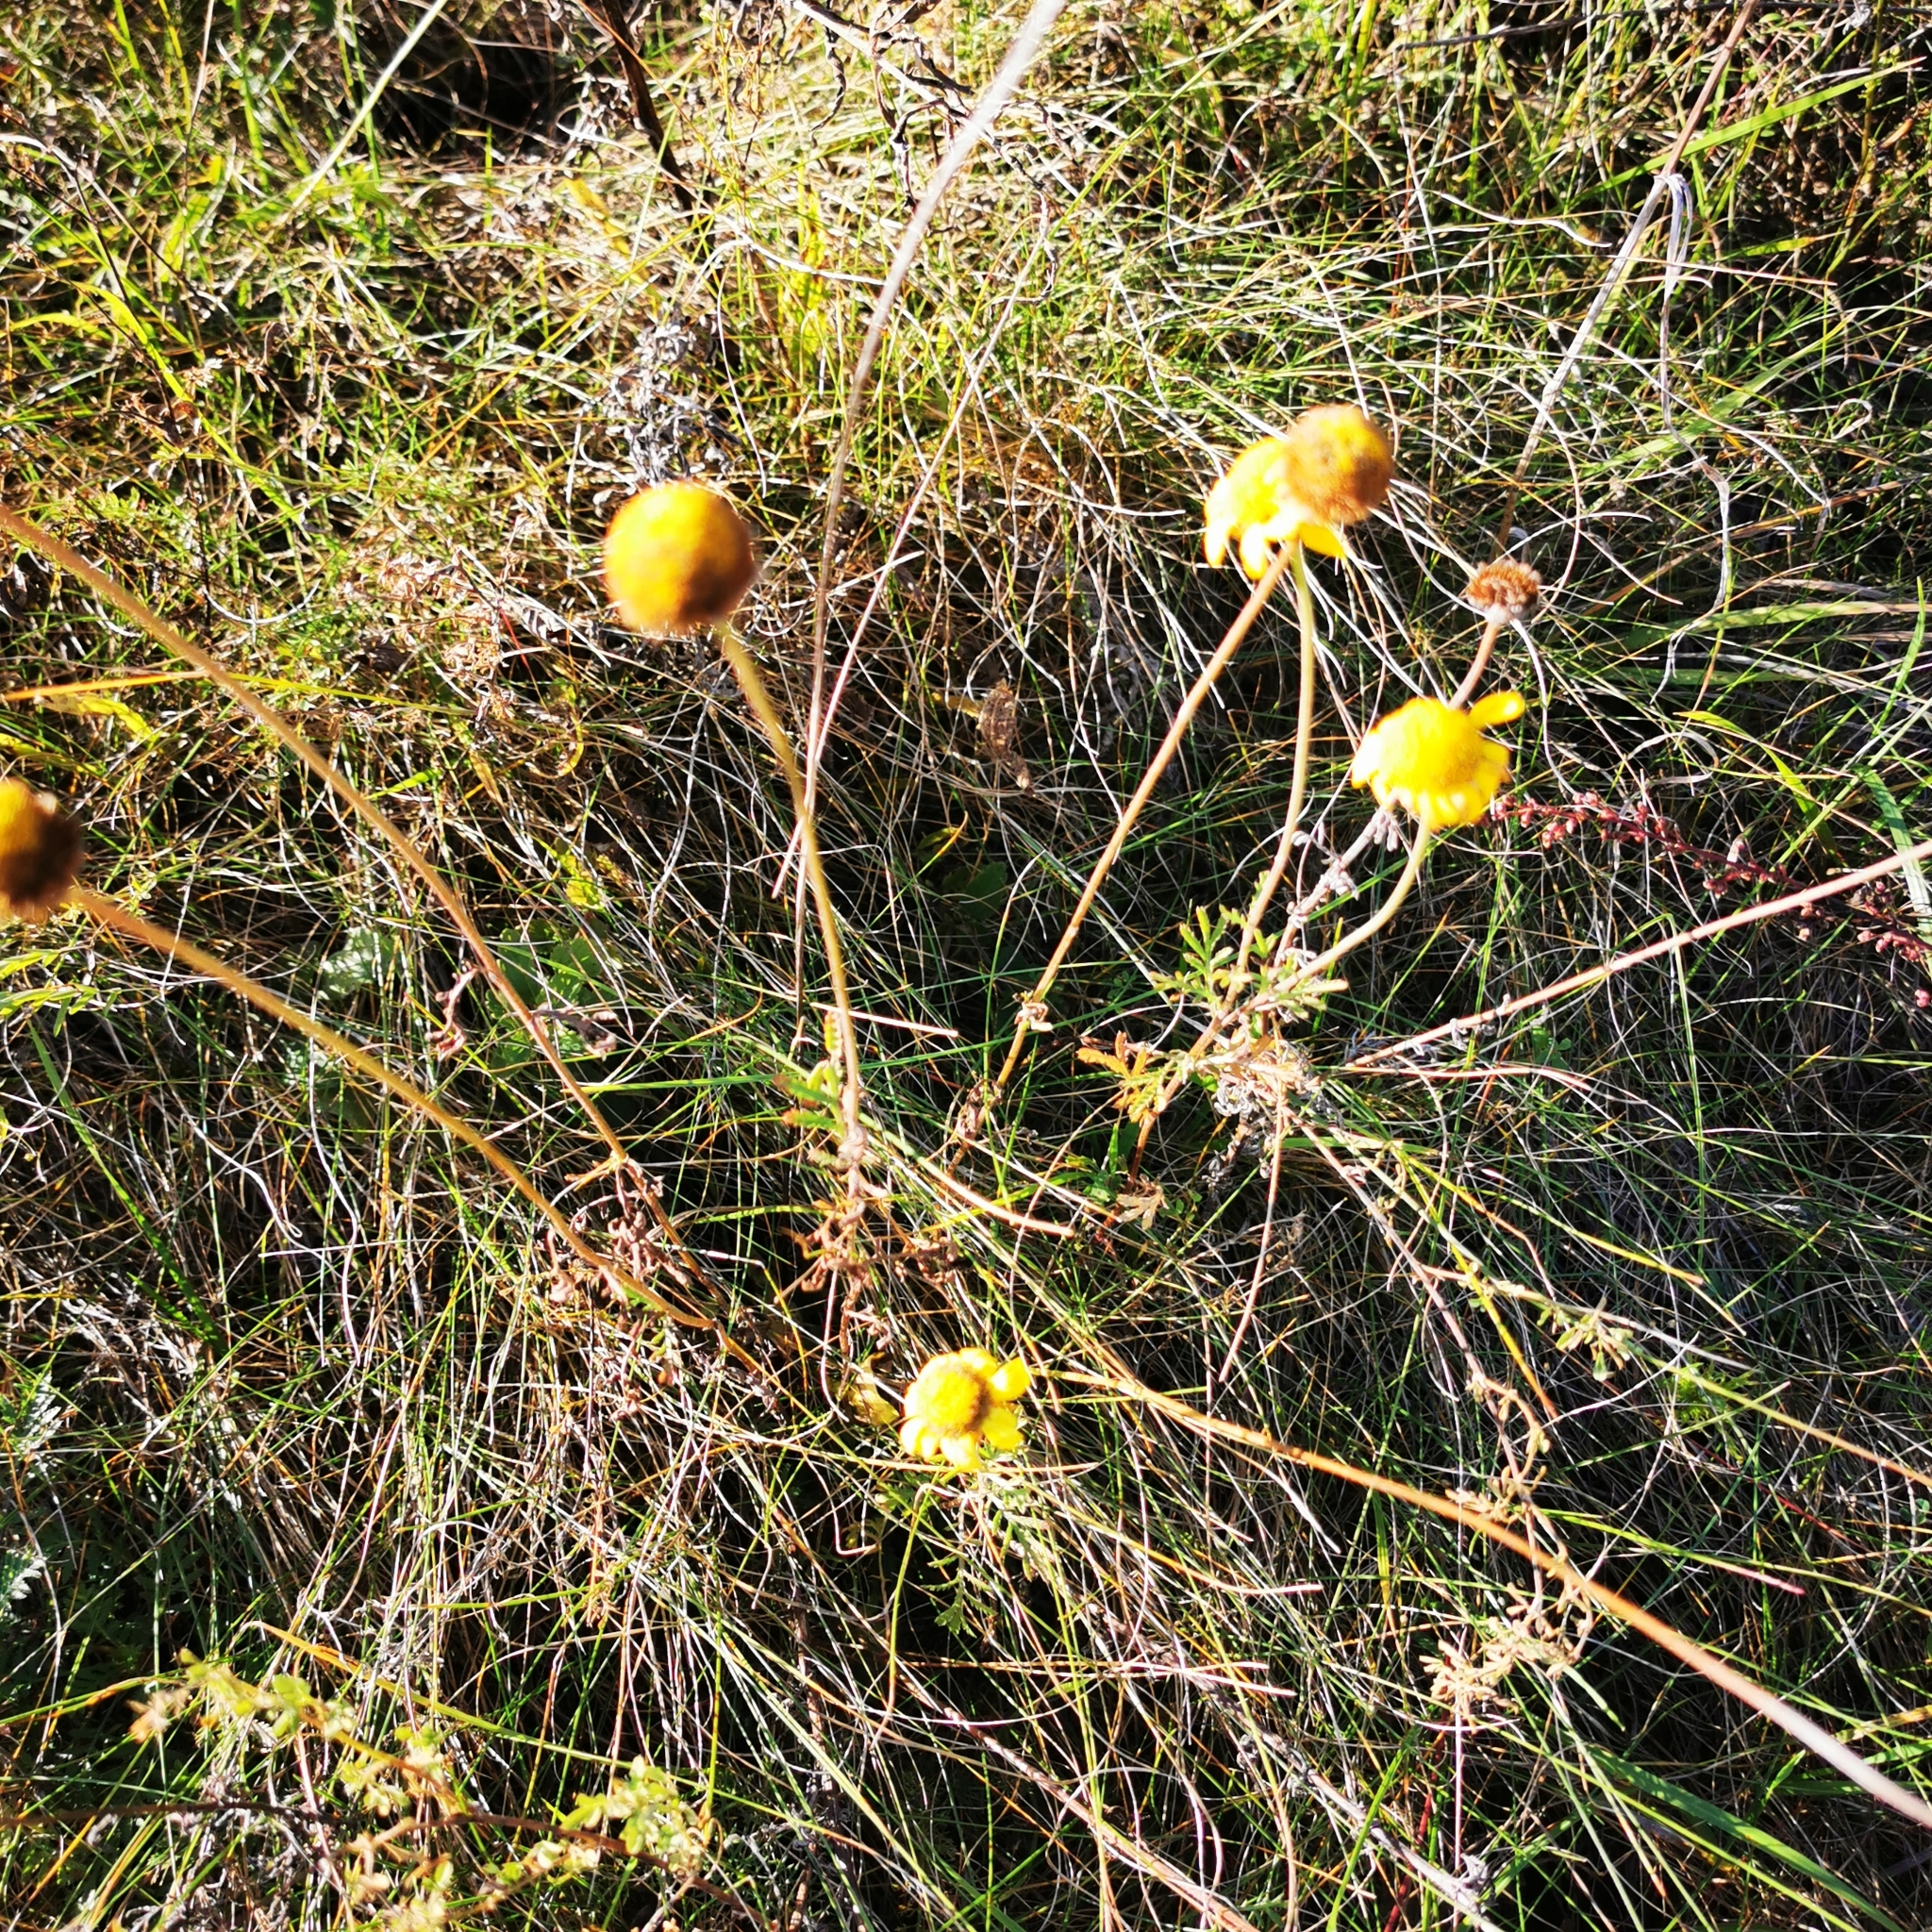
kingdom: Plantae
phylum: Tracheophyta
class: Magnoliopsida
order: Asterales
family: Asteraceae
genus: Cota
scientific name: Cota tinctoria
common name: Golden chamomile
